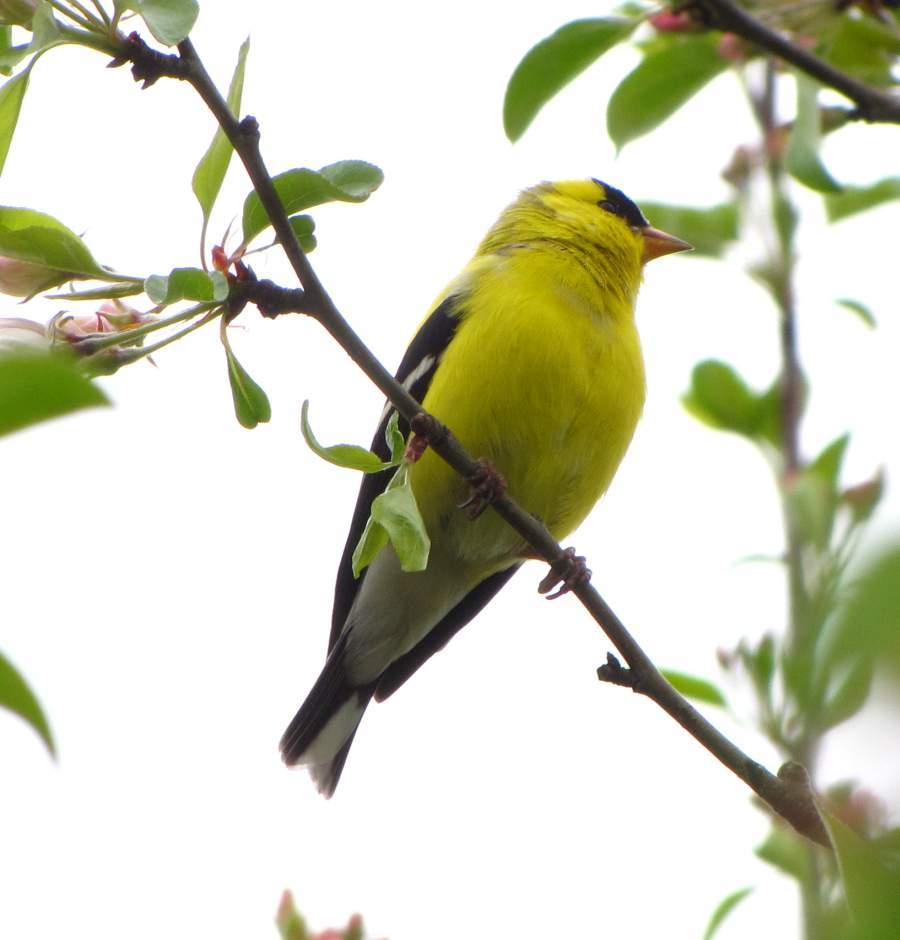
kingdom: Animalia
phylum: Chordata
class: Aves
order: Passeriformes
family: Fringillidae
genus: Spinus
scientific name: Spinus tristis
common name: American goldfinch
